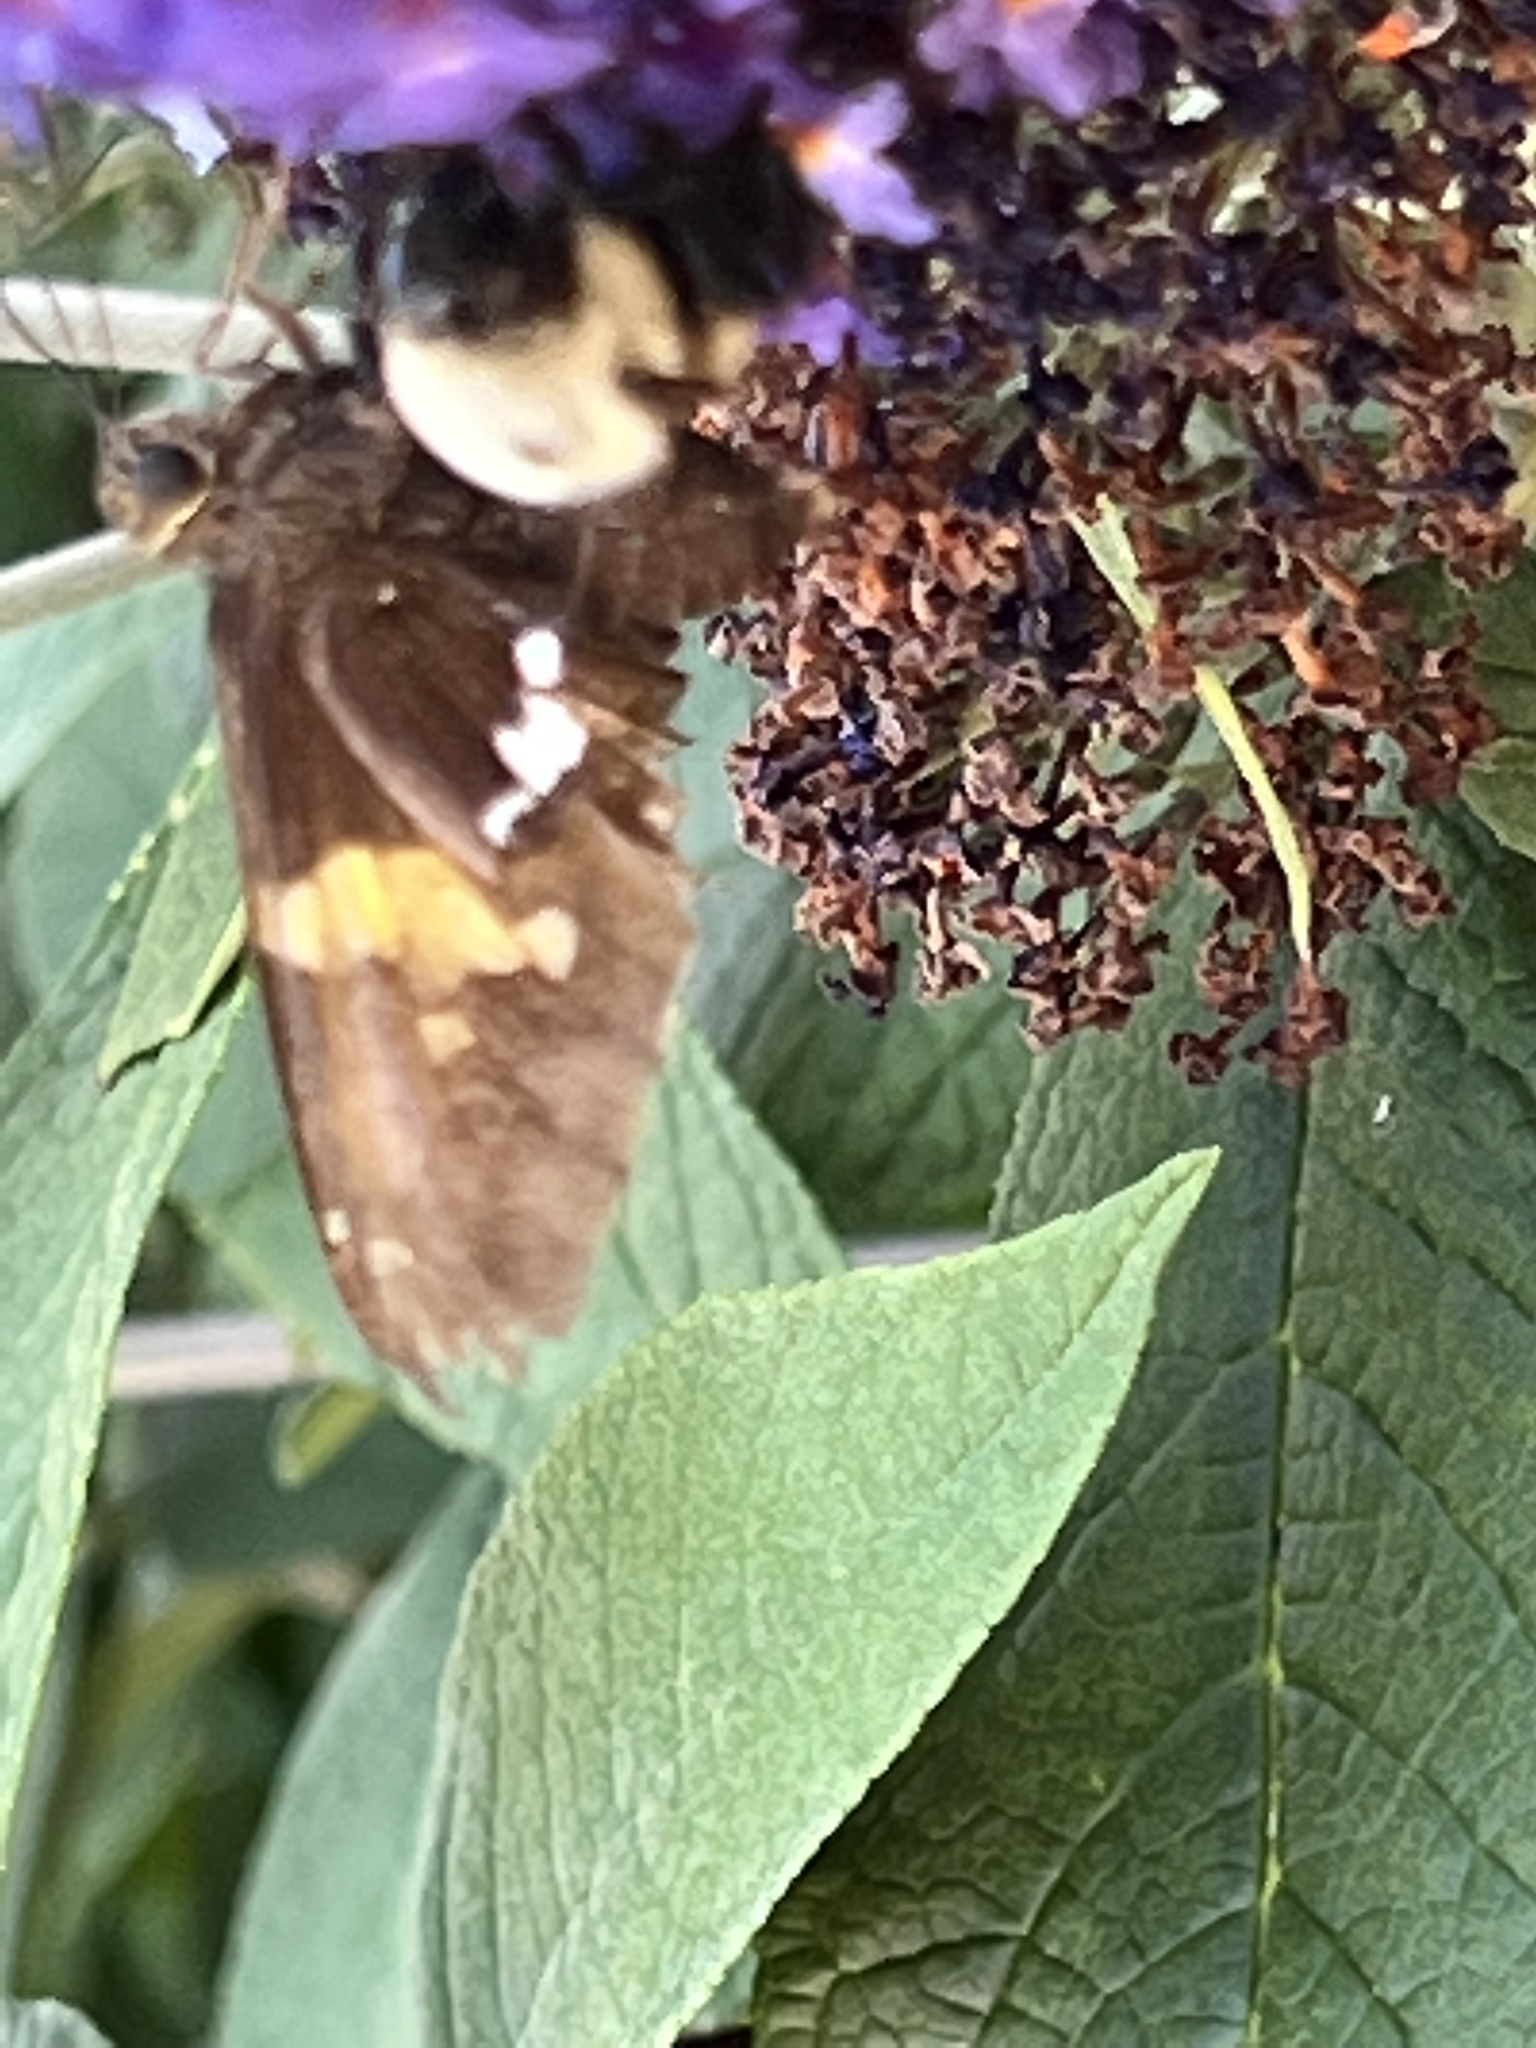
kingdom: Animalia
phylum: Arthropoda
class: Insecta
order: Lepidoptera
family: Hesperiidae
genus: Epargyreus
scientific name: Epargyreus clarus
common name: Silver-spotted skipper
